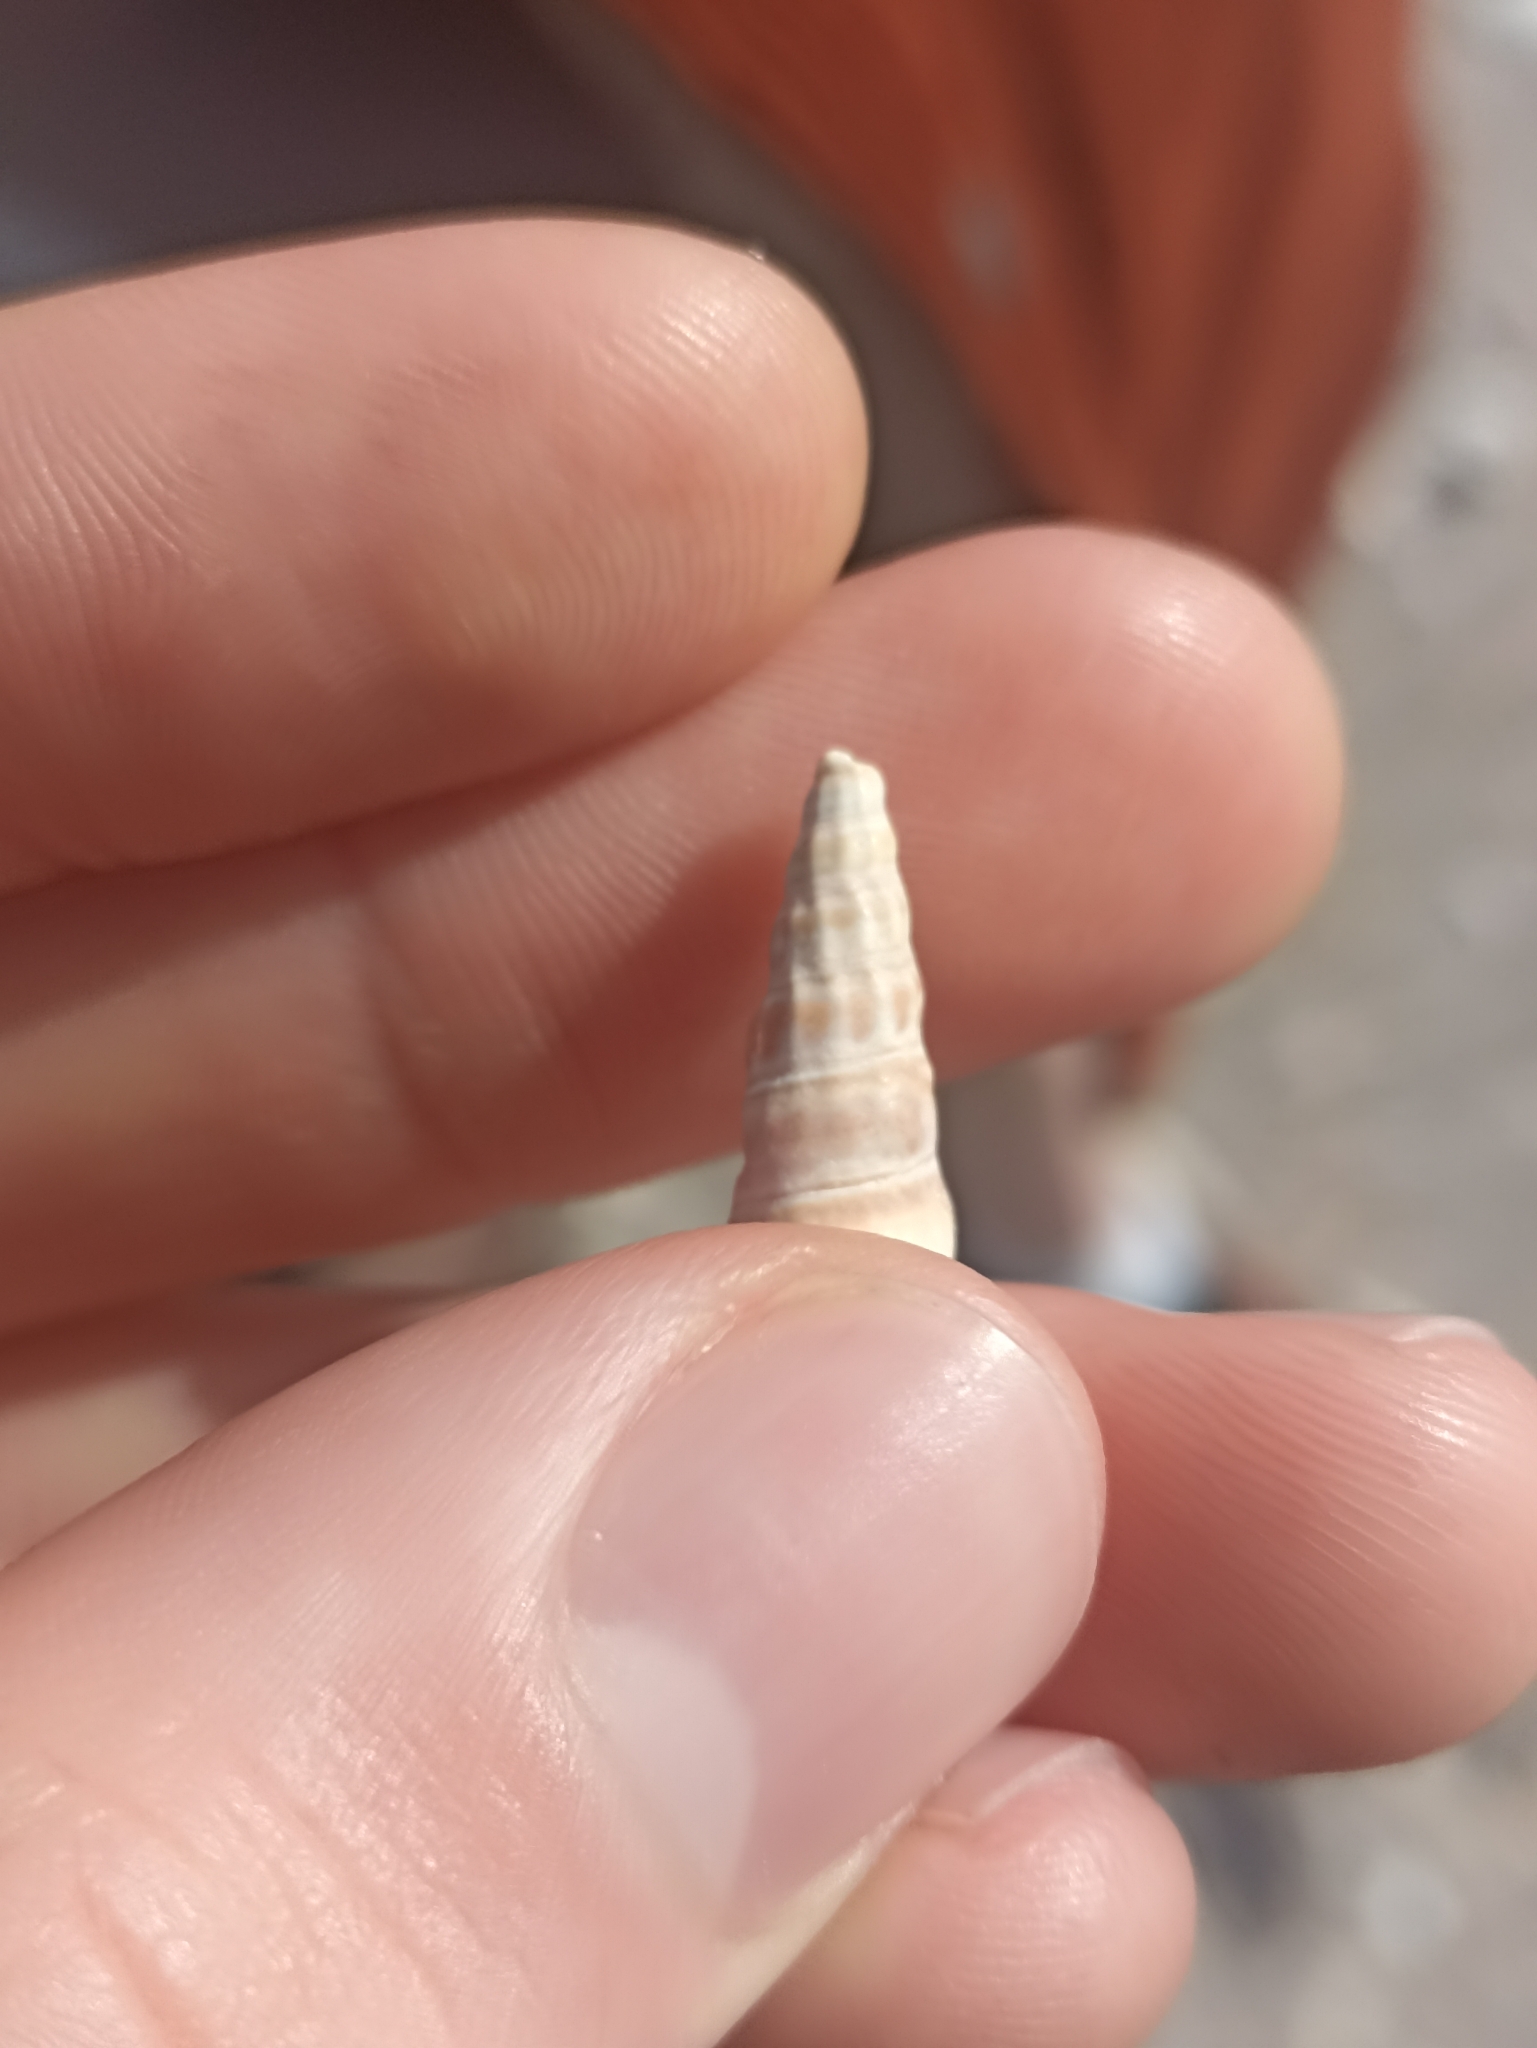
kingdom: Animalia
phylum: Mollusca
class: Gastropoda
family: Batillariidae
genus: Zeacumantus
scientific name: Zeacumantus lutulentus
